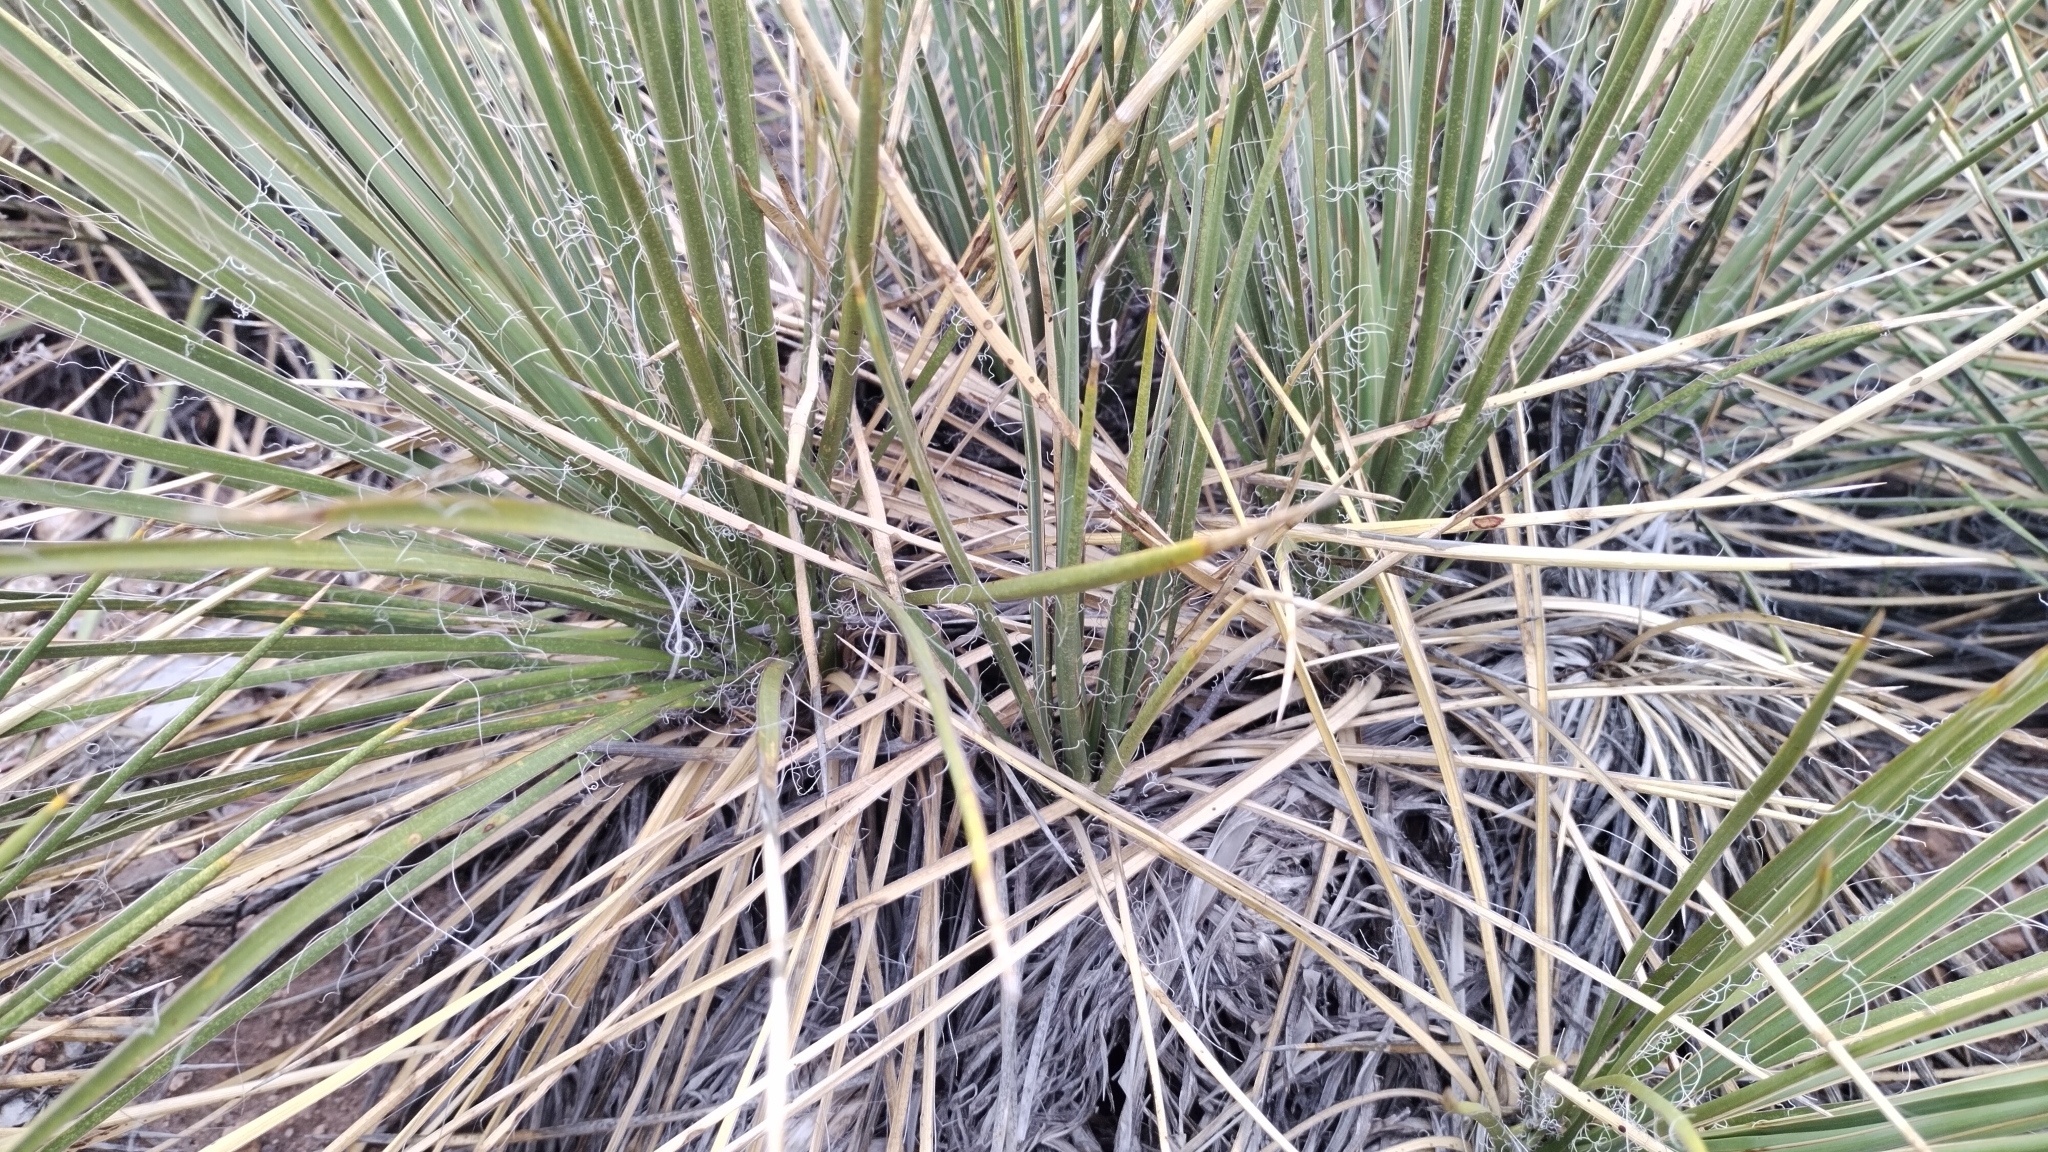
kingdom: Plantae
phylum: Tracheophyta
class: Liliopsida
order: Asparagales
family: Asparagaceae
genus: Yucca
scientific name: Yucca glauca
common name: Great plains yucca
